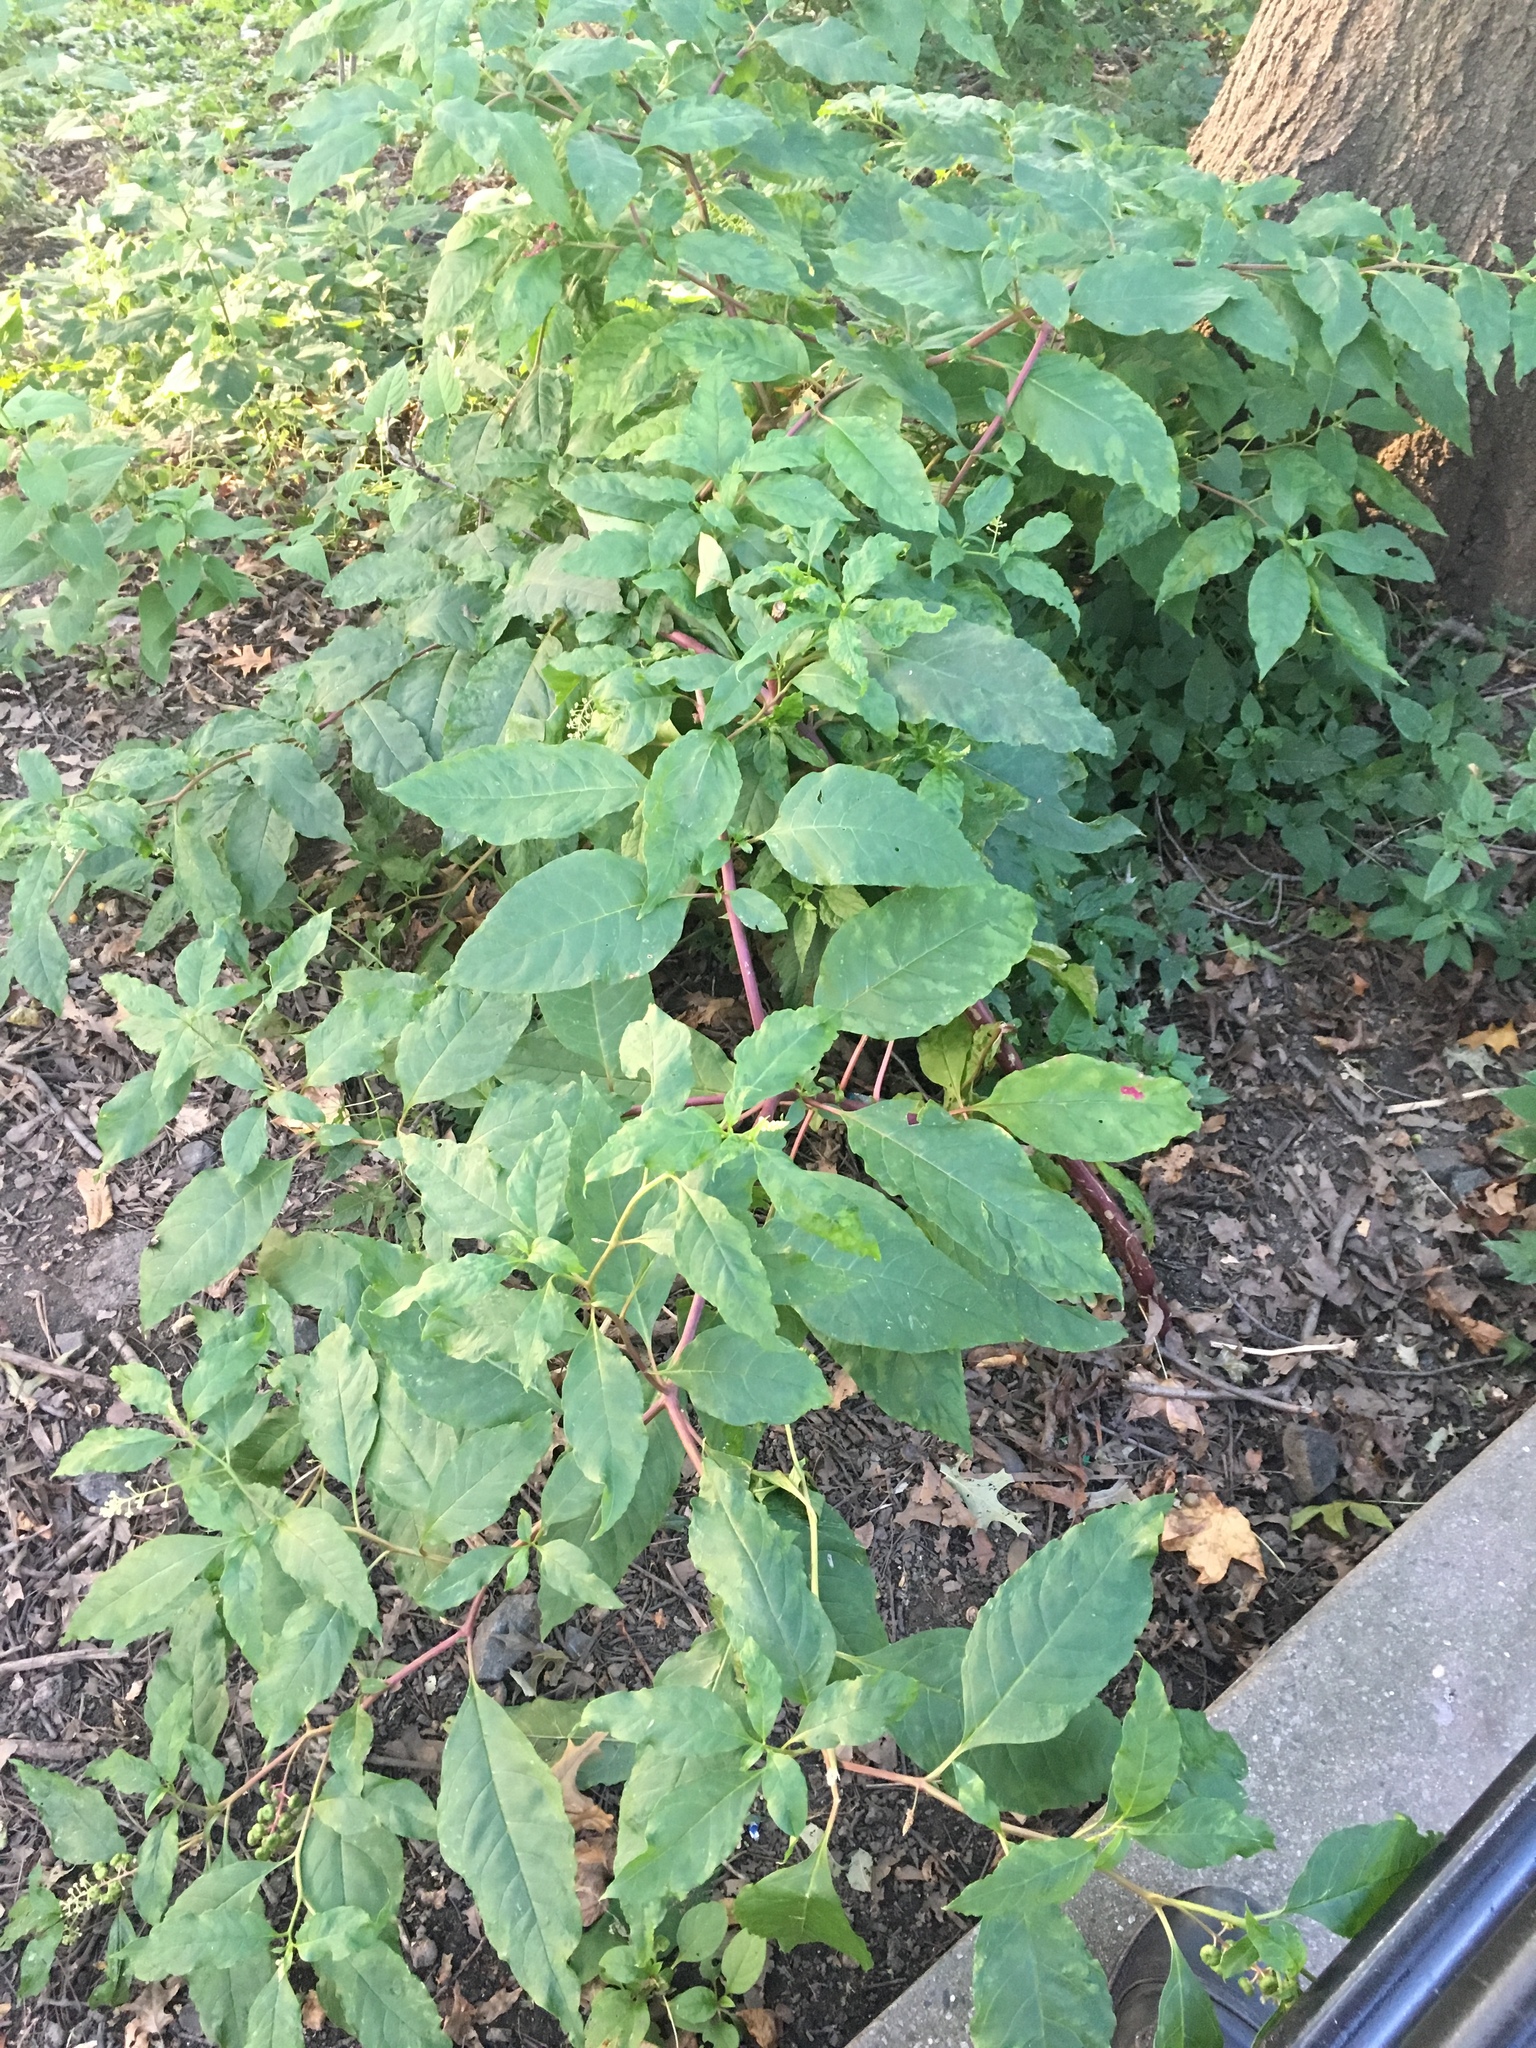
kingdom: Plantae
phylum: Tracheophyta
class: Magnoliopsida
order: Caryophyllales
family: Phytolaccaceae
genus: Phytolacca
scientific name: Phytolacca americana
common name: American pokeweed
